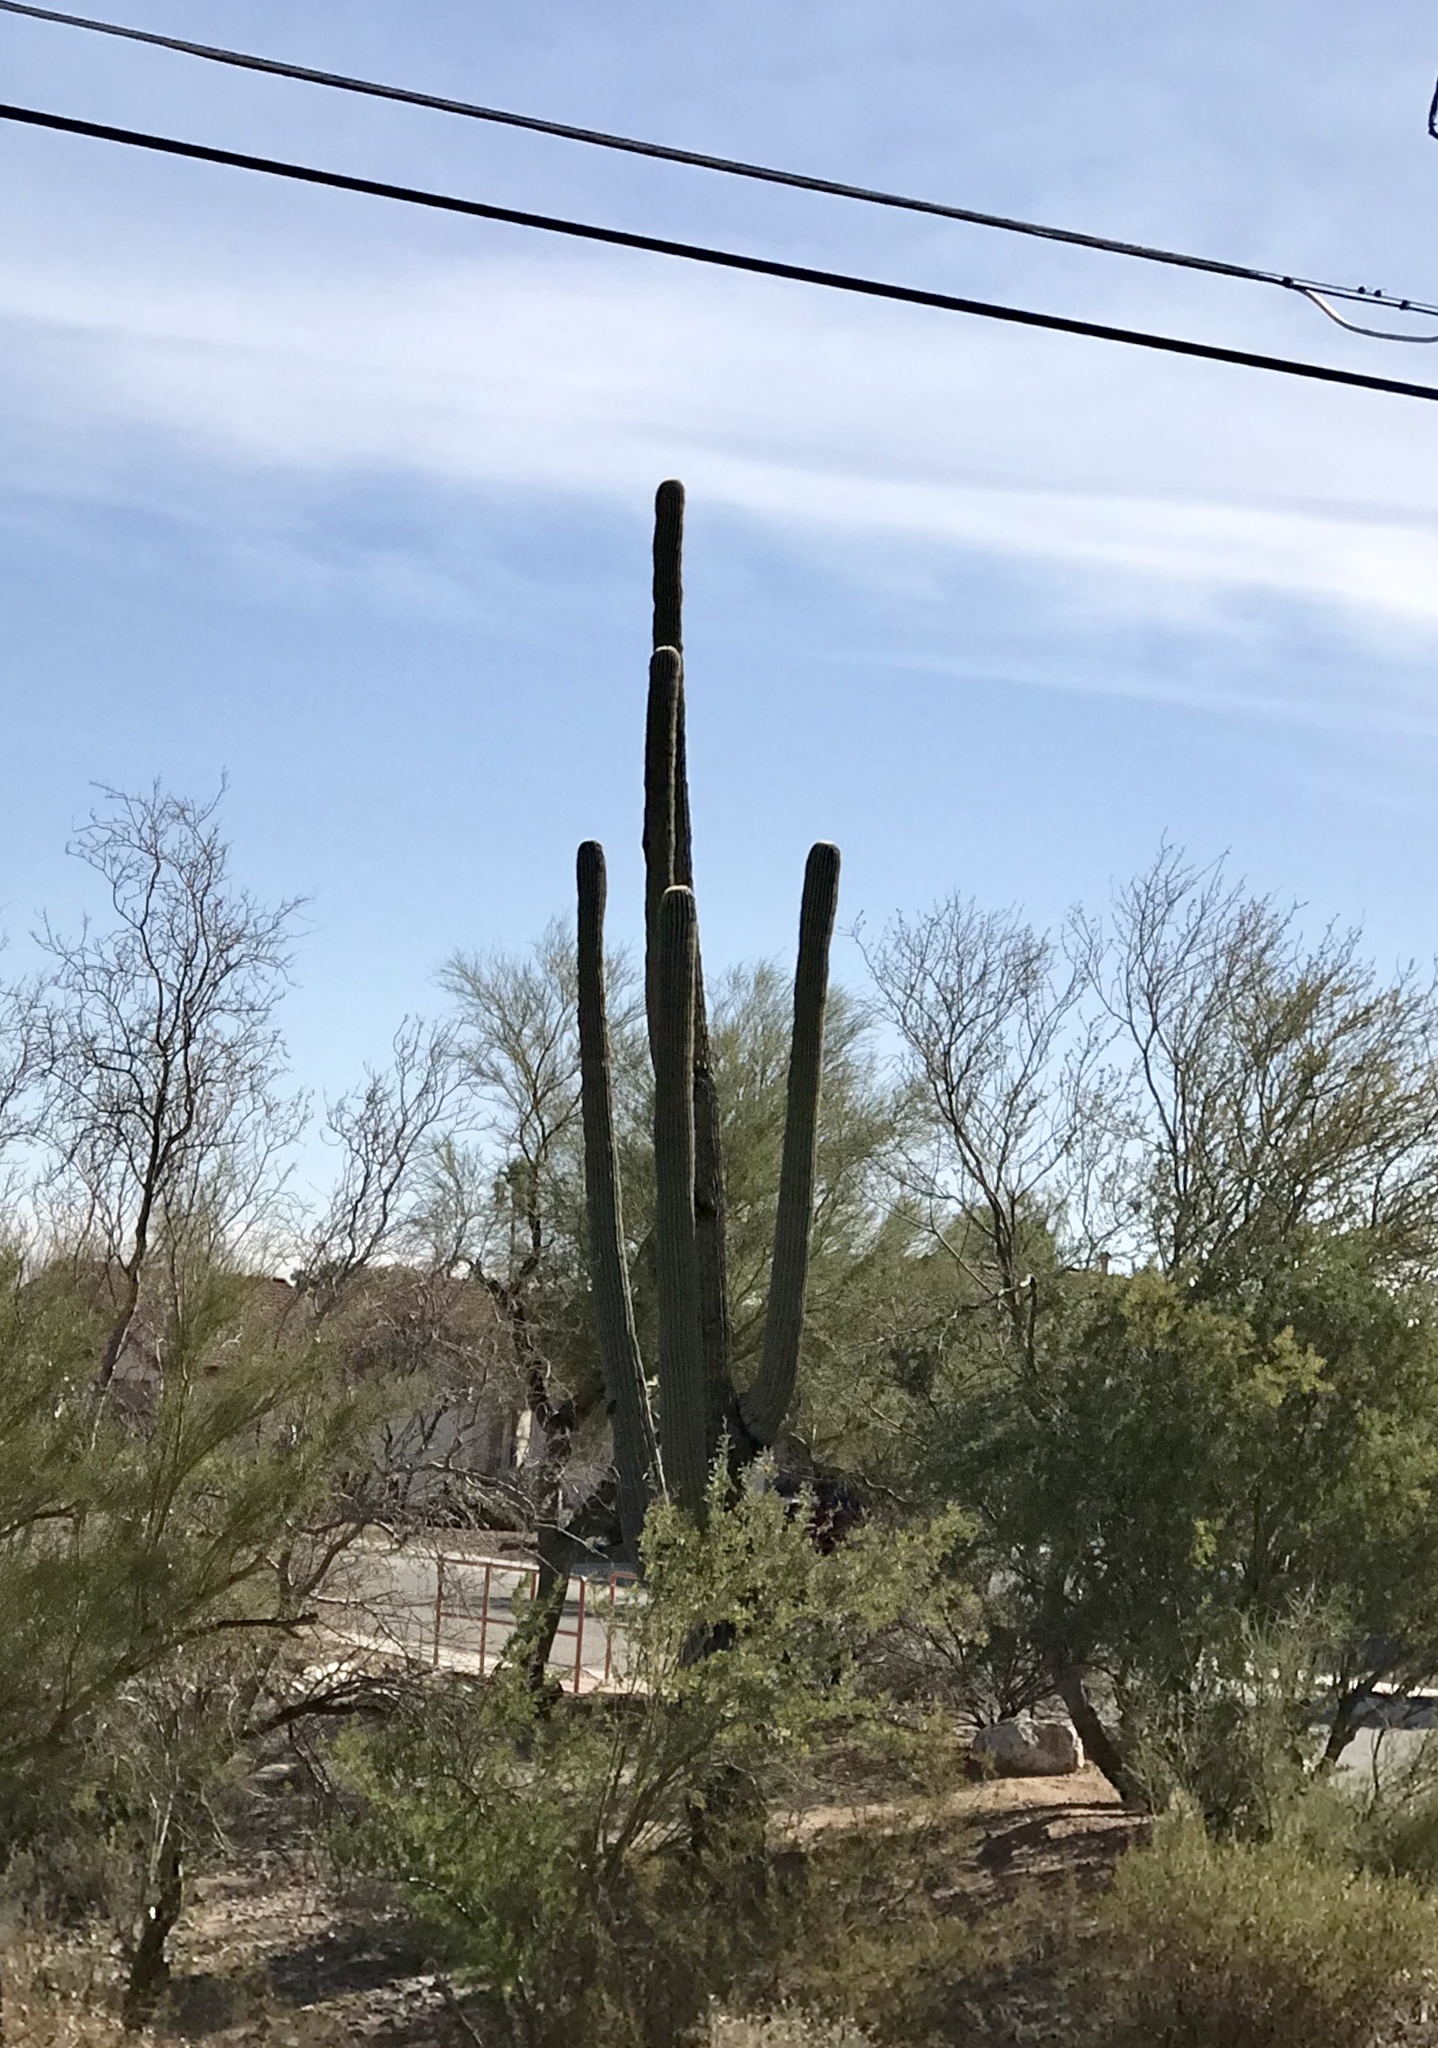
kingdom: Plantae
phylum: Tracheophyta
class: Magnoliopsida
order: Caryophyllales
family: Cactaceae
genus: Carnegiea
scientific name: Carnegiea gigantea
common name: Saguaro
